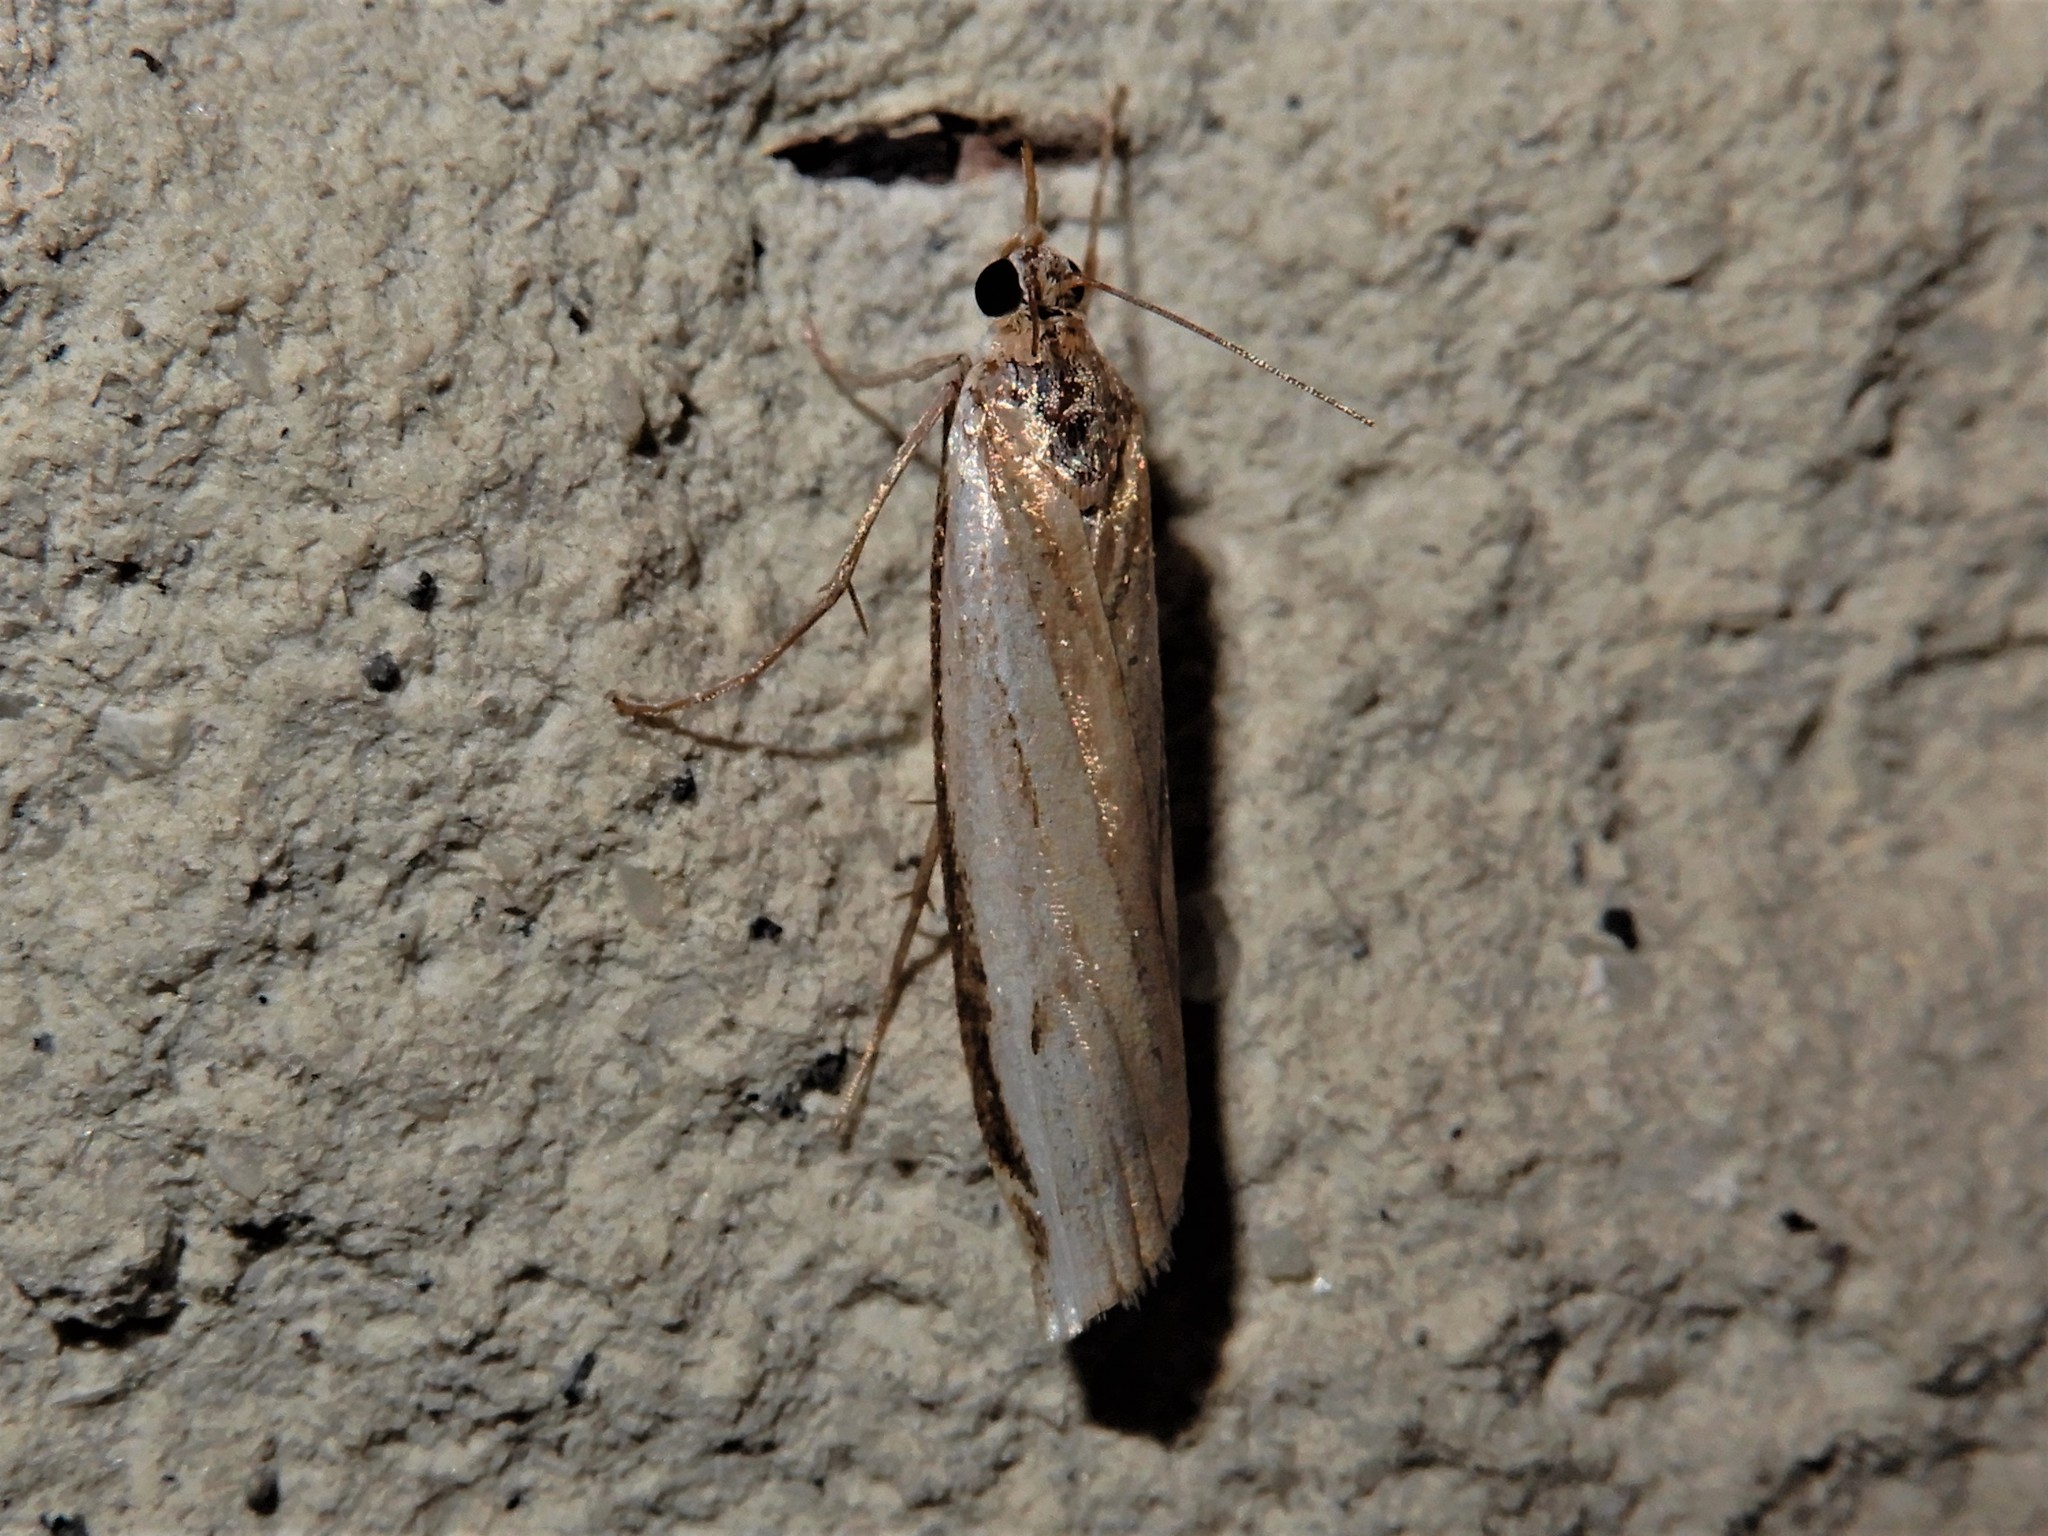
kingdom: Animalia
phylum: Arthropoda
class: Insecta
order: Lepidoptera
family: Crambidae
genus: Orocrambus
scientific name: Orocrambus flexuosellus
